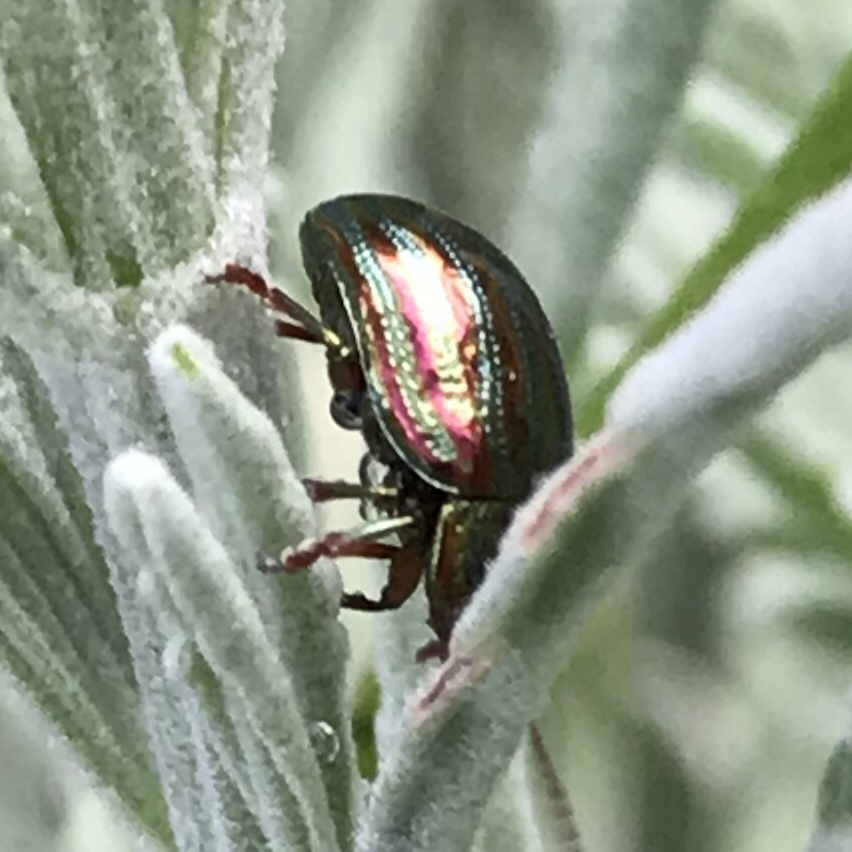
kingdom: Animalia
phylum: Arthropoda
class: Insecta
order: Coleoptera
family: Chrysomelidae
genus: Chrysolina
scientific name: Chrysolina americana
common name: Rosemary beetle
